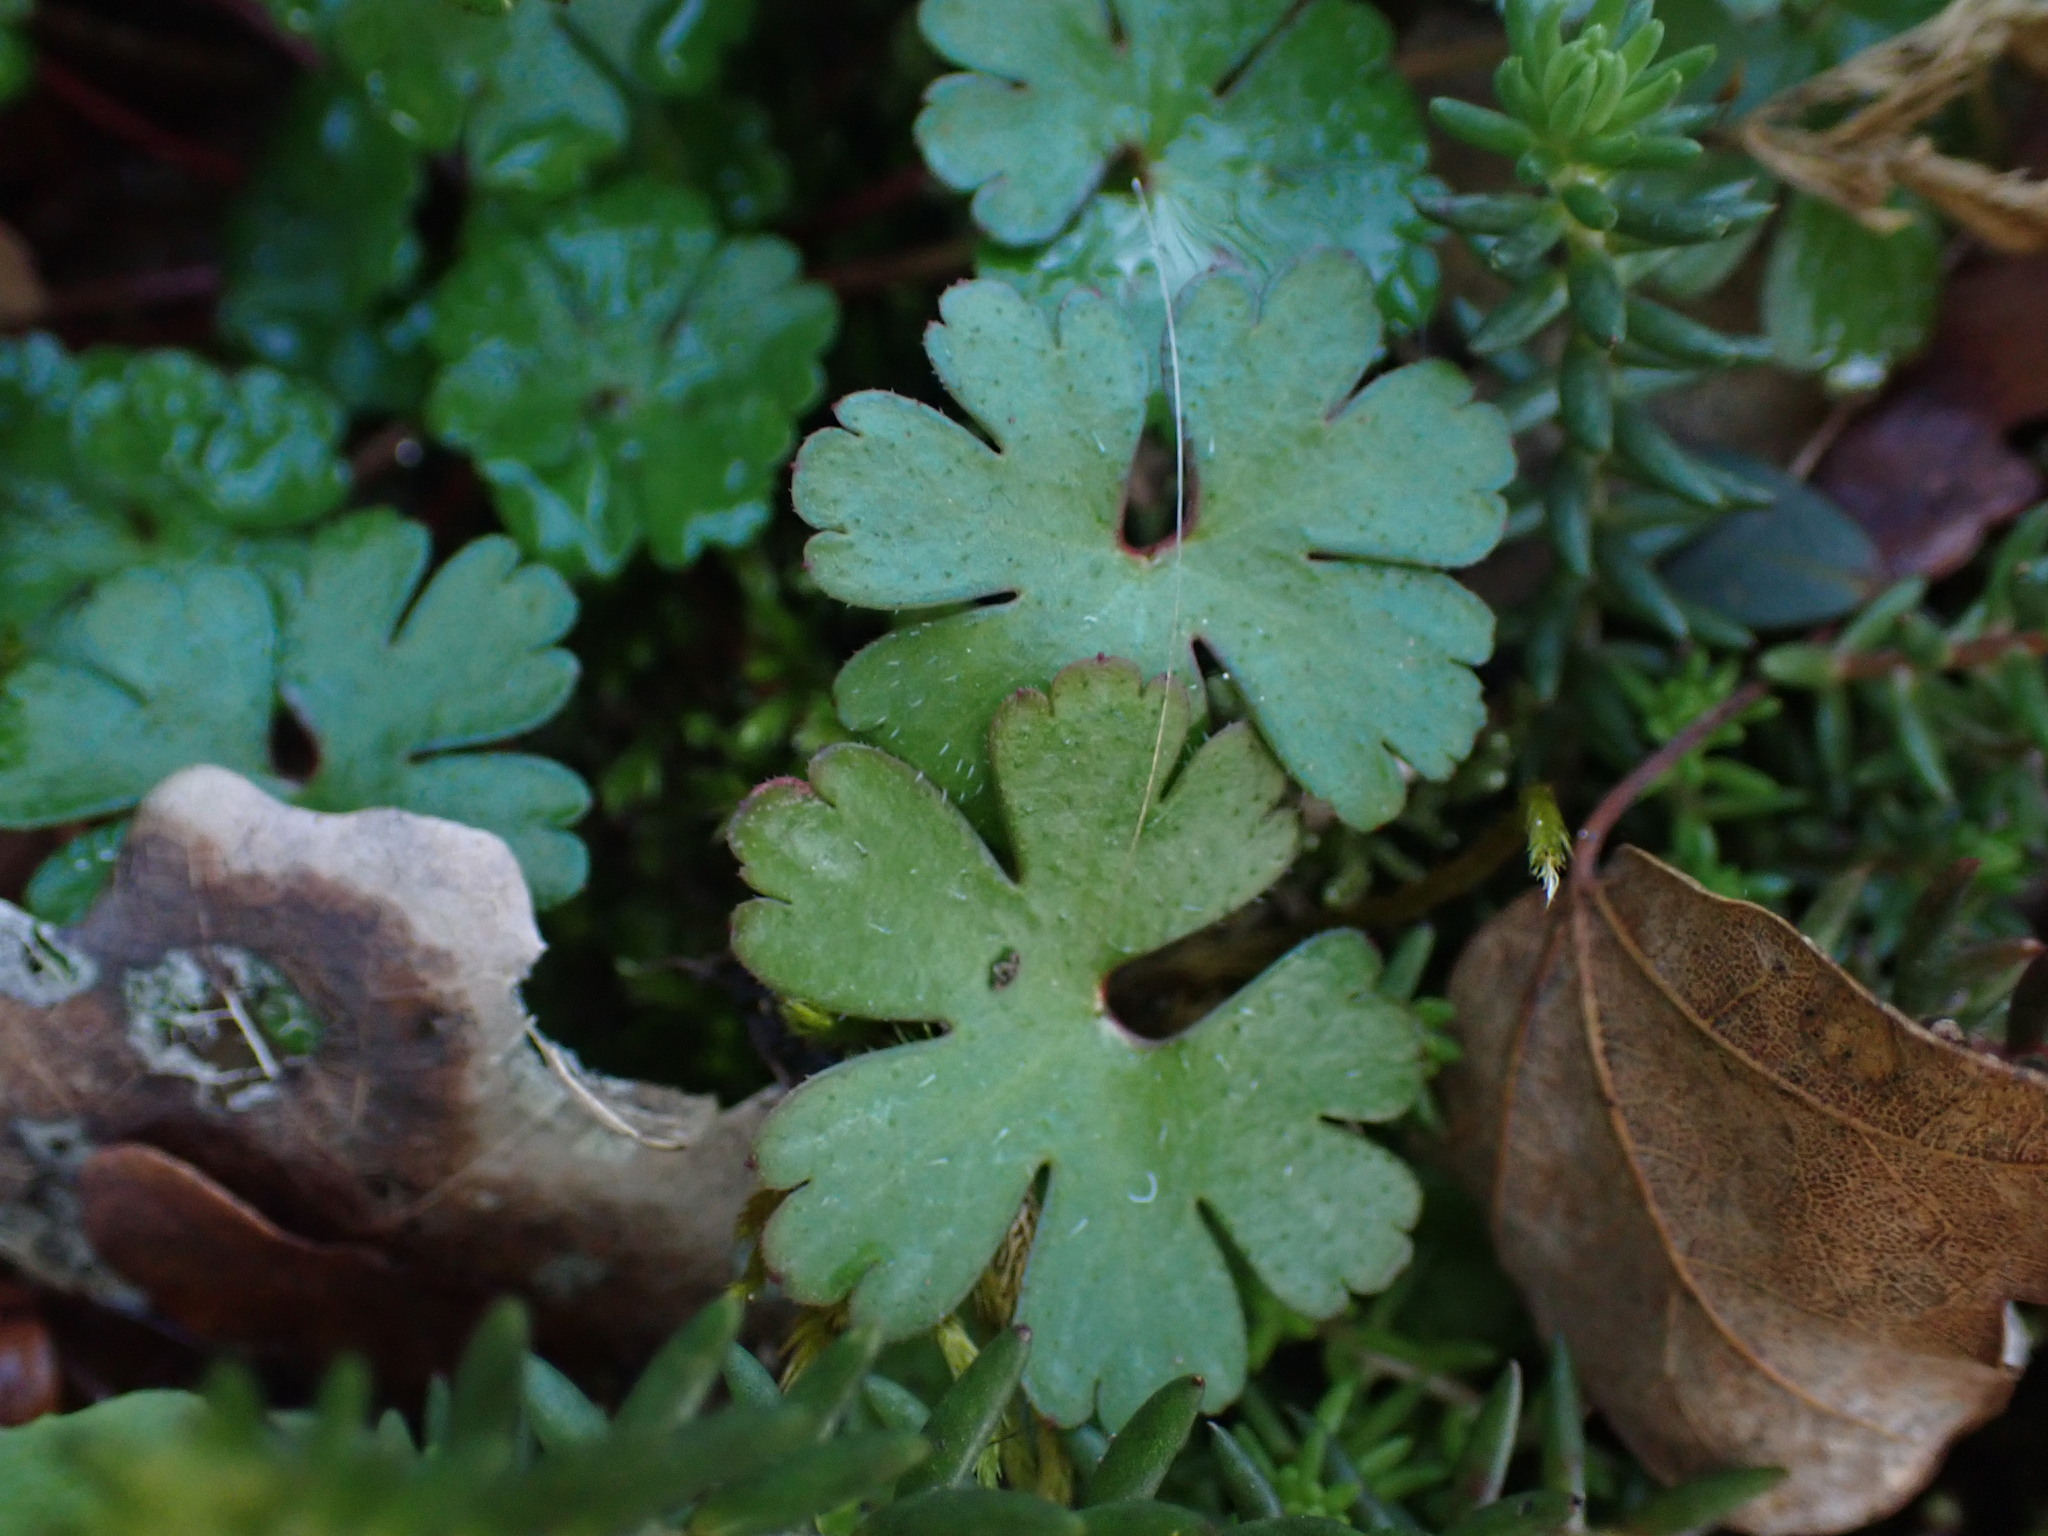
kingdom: Plantae
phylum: Tracheophyta
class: Magnoliopsida
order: Geraniales
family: Geraniaceae
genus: Geranium
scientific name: Geranium lucidum
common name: Shining crane's-bill
